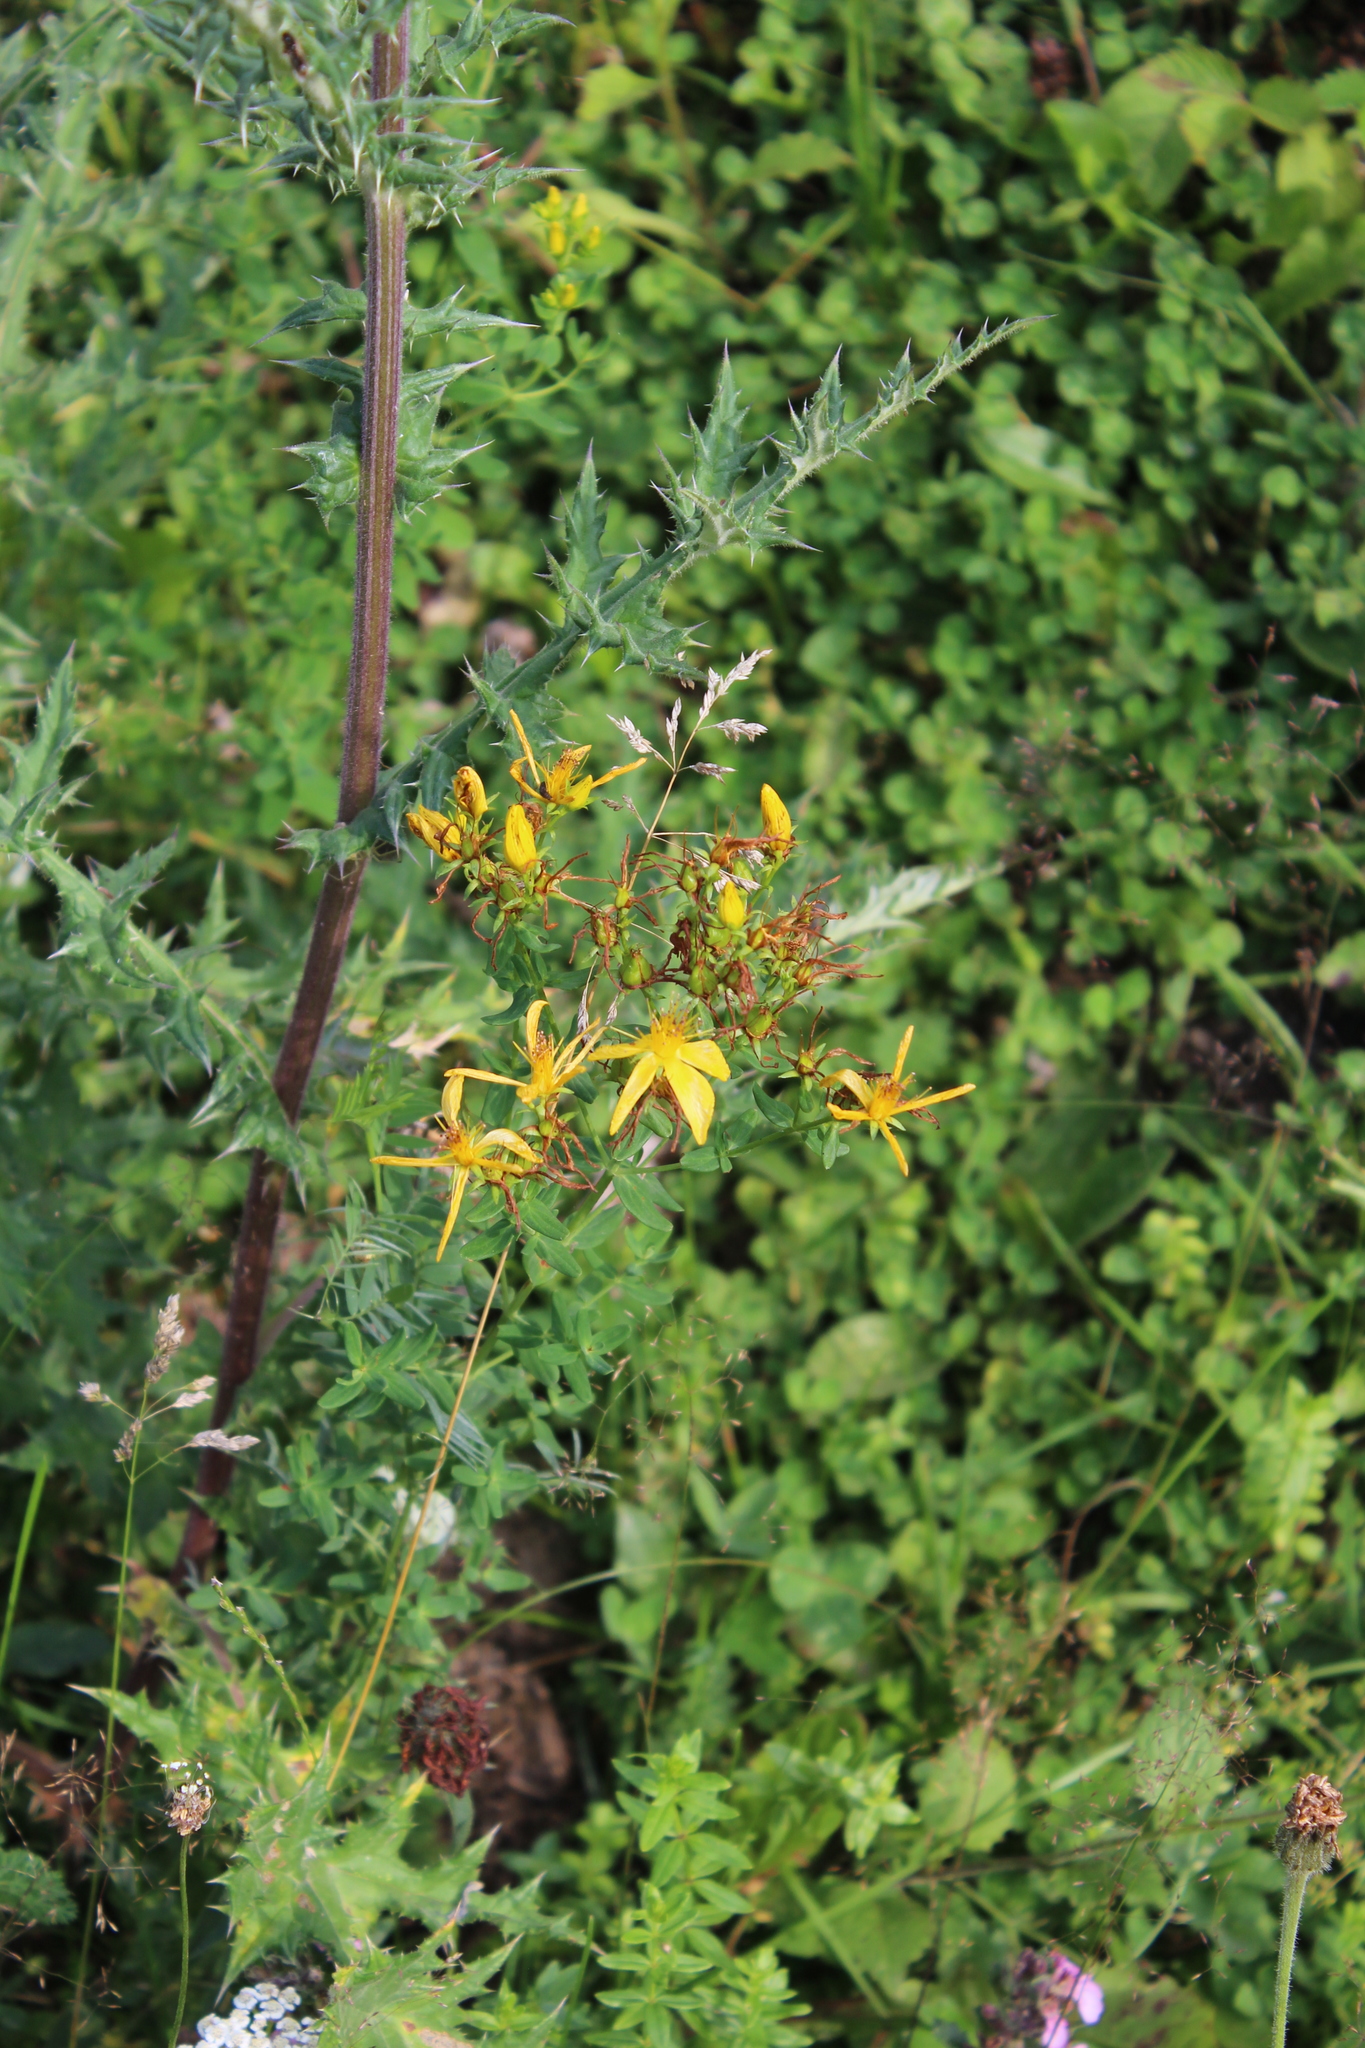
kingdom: Plantae
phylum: Tracheophyta
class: Magnoliopsida
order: Malpighiales
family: Hypericaceae
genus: Hypericum
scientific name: Hypericum perforatum
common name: Common st. johnswort
